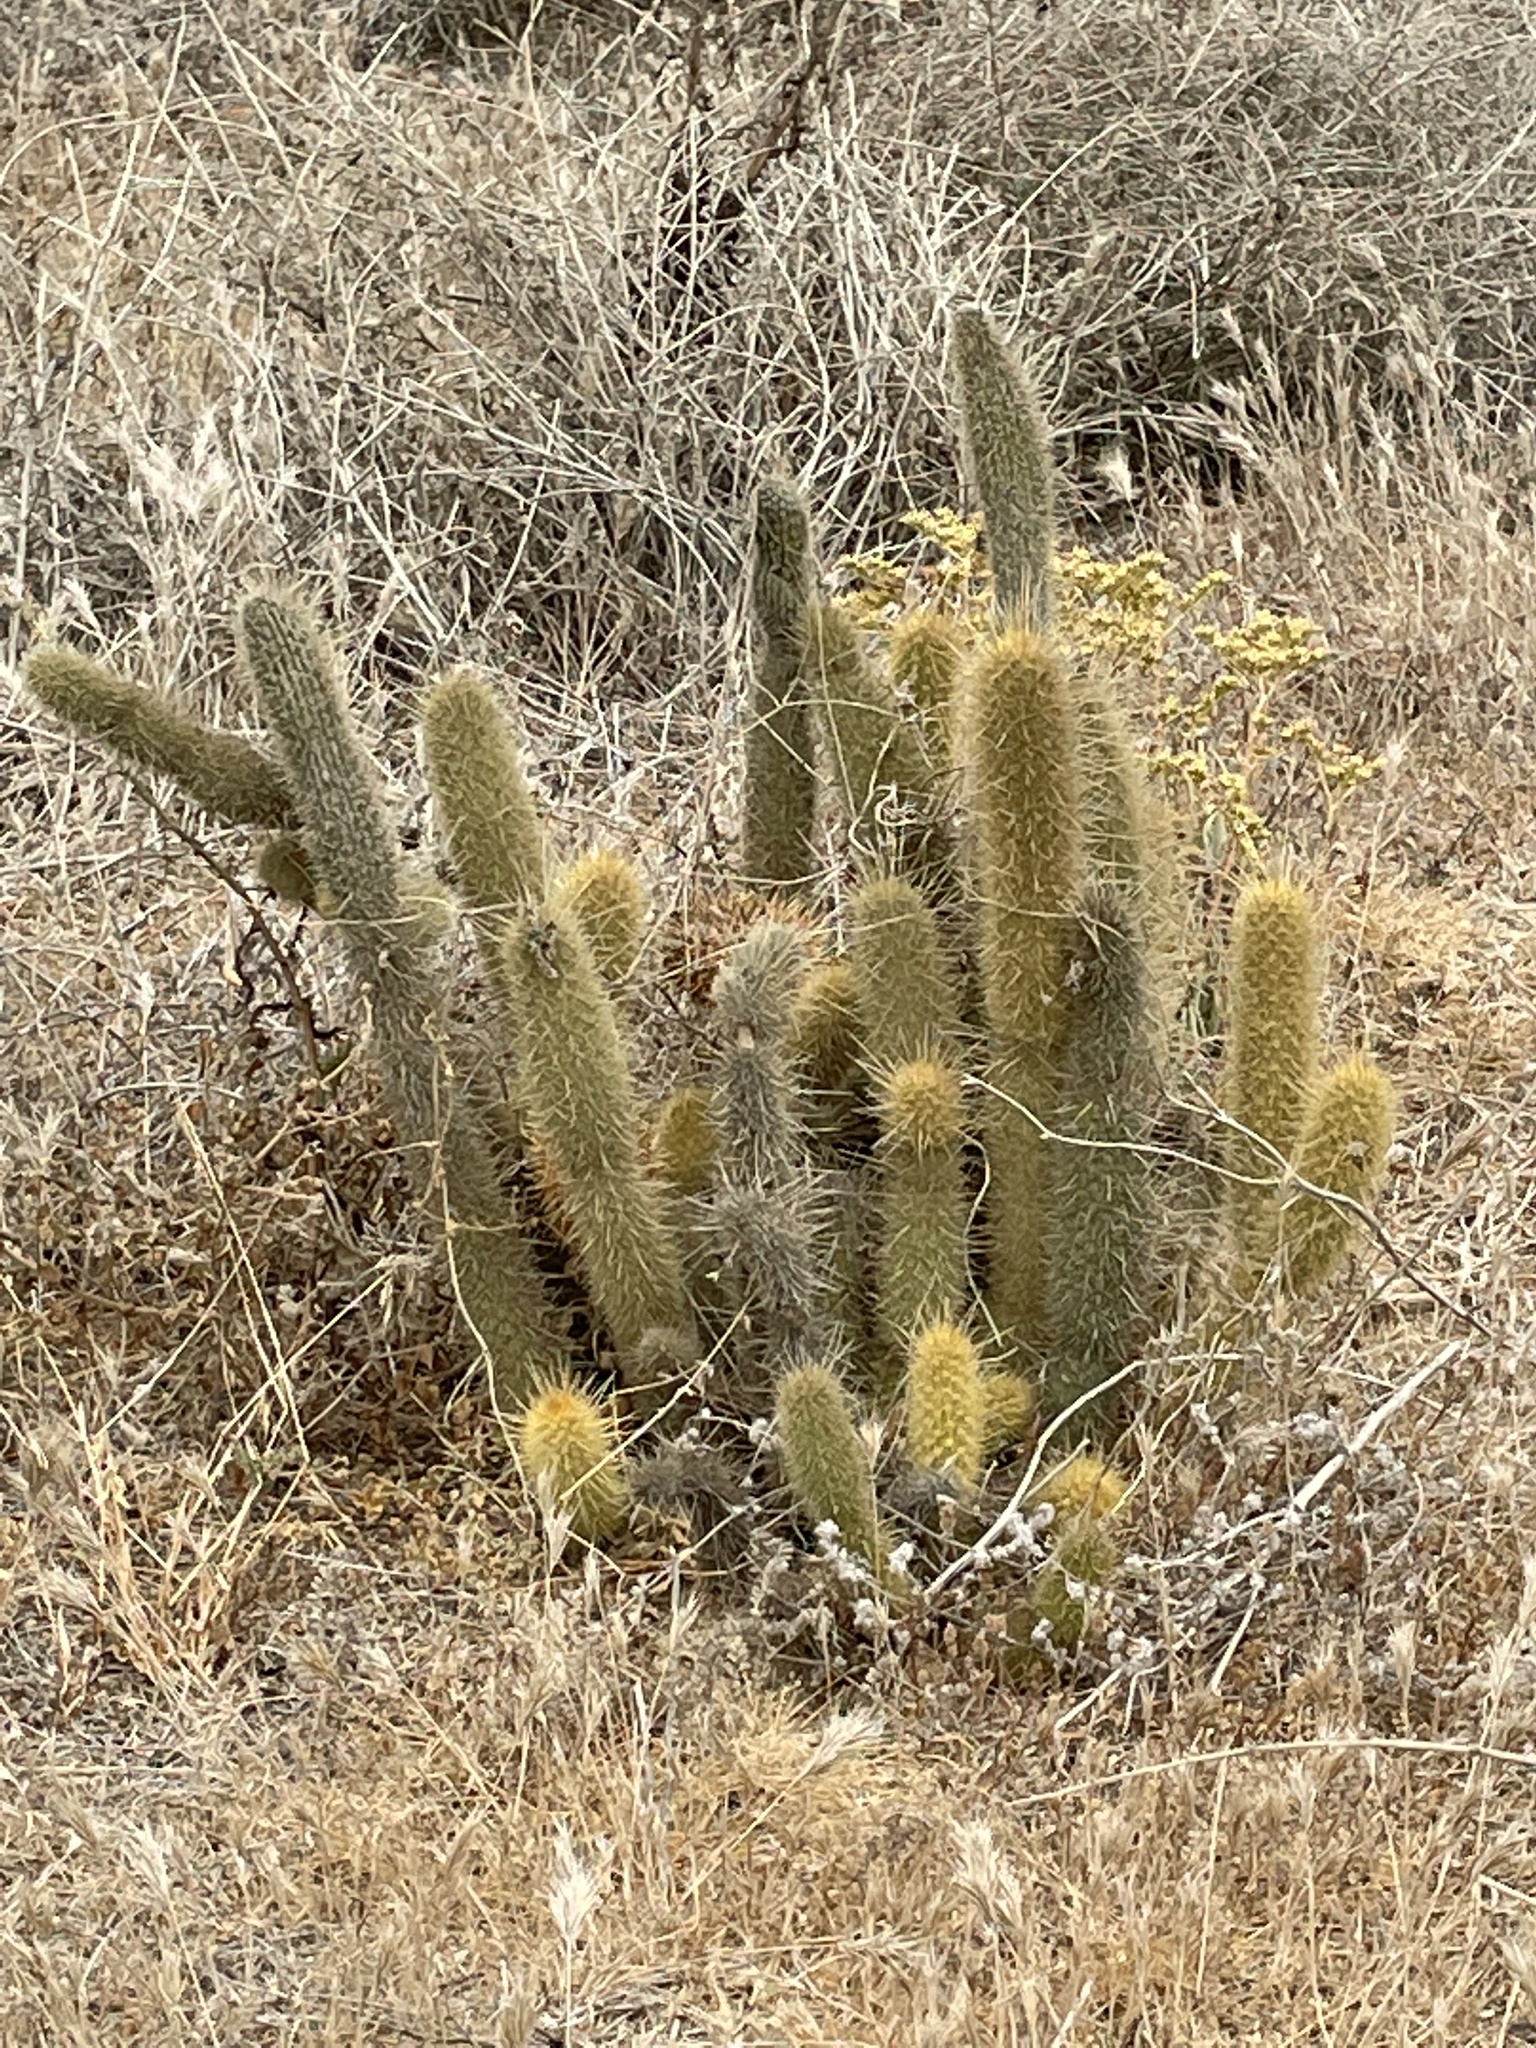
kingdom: Plantae
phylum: Tracheophyta
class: Magnoliopsida
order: Caryophyllales
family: Cactaceae
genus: Bergerocactus
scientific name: Bergerocactus emoryi
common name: Golden snakecactus
